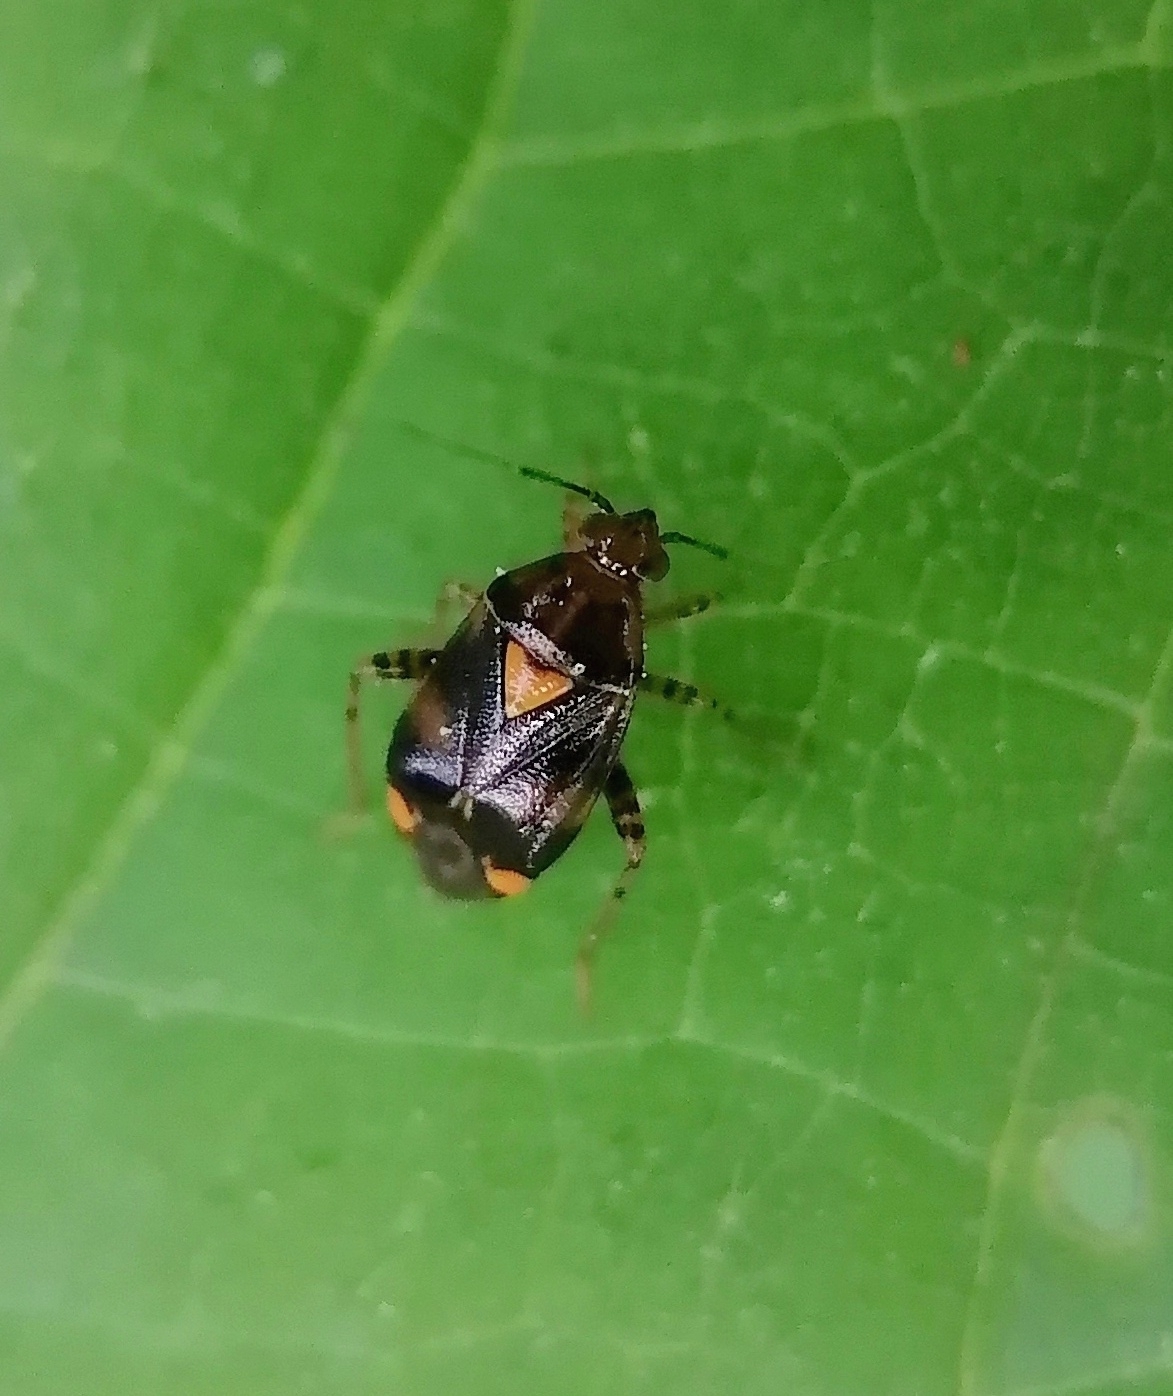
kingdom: Animalia
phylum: Arthropoda
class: Insecta
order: Hemiptera
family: Miridae
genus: Liocoris
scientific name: Liocoris tripustulatus
